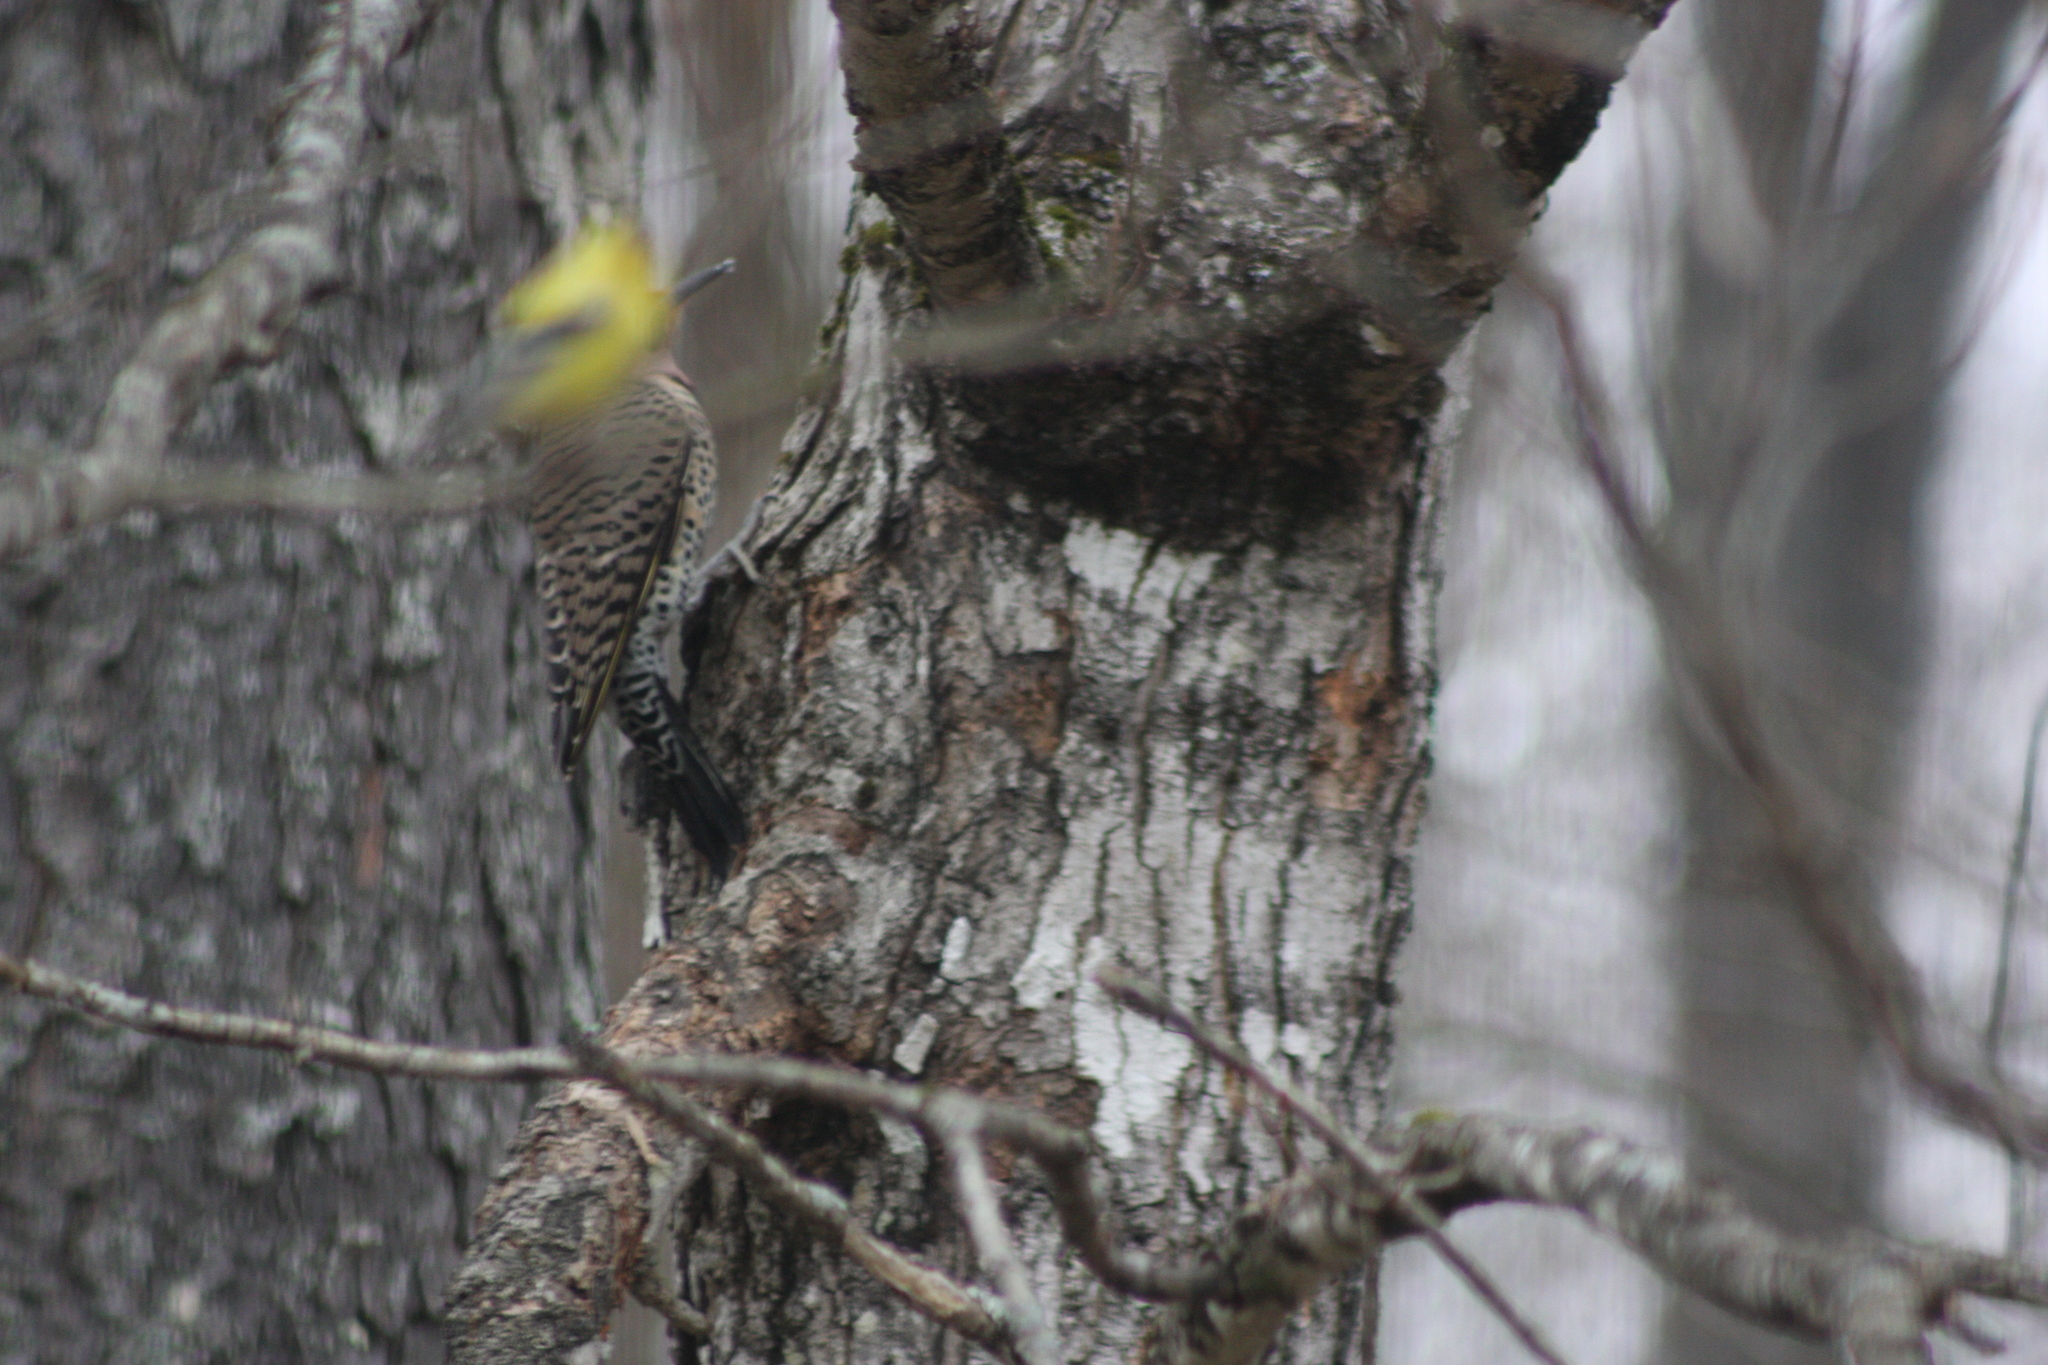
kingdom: Animalia
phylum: Chordata
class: Aves
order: Piciformes
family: Picidae
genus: Colaptes
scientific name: Colaptes auratus
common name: Northern flicker
